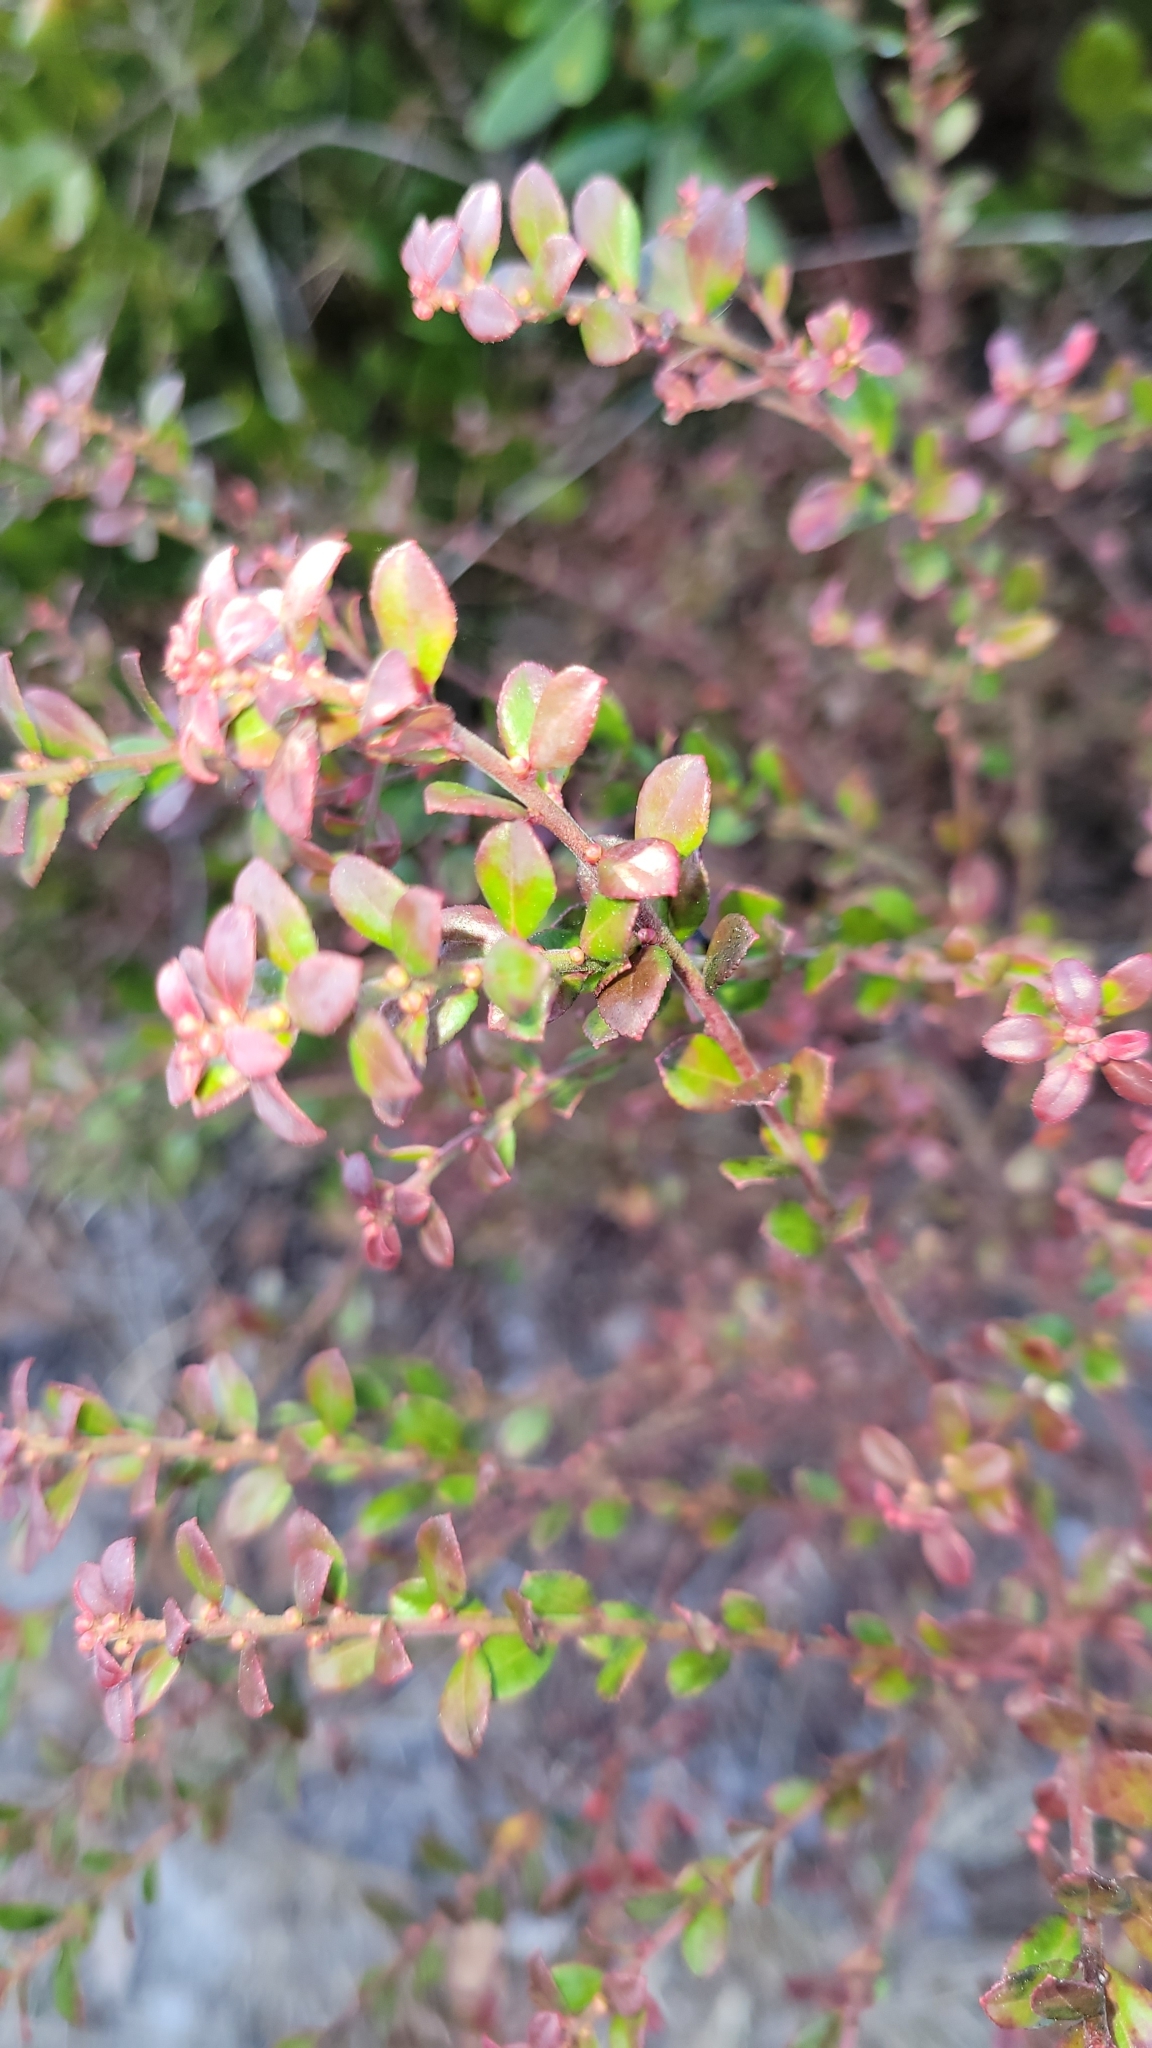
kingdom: Plantae
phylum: Tracheophyta
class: Magnoliopsida
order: Ericales
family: Ericaceae
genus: Vaccinium
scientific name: Vaccinium myrsinites
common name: Evergreen blueberry
